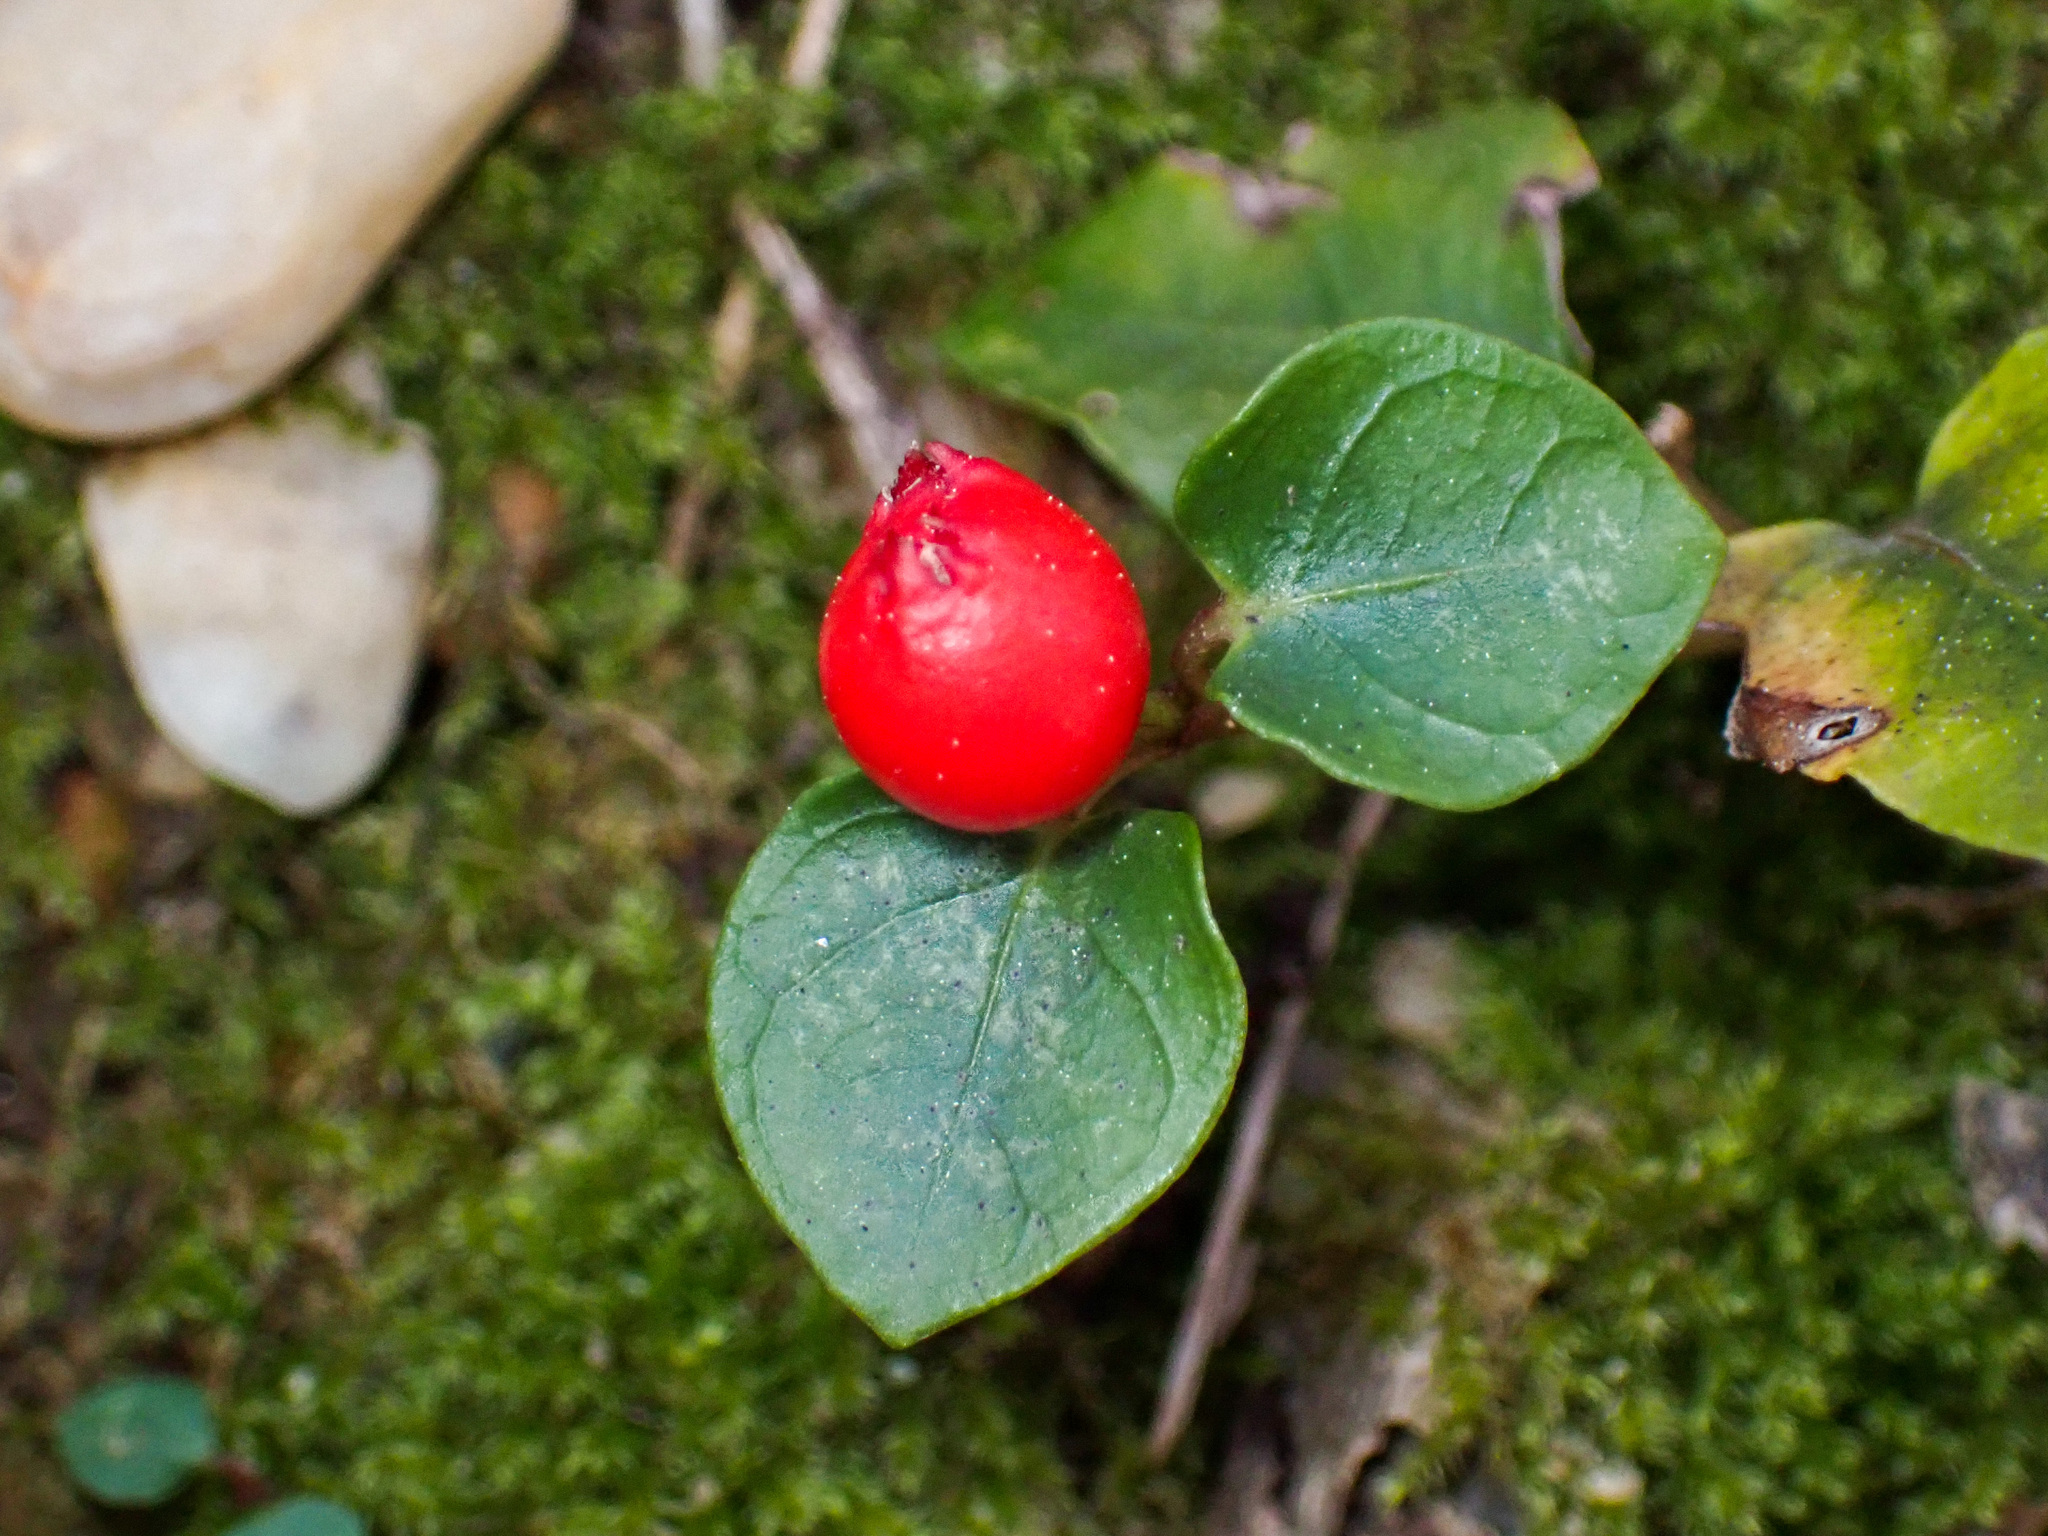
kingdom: Plantae
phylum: Tracheophyta
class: Magnoliopsida
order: Gentianales
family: Rubiaceae
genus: Mitchella
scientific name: Mitchella repens
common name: Partridge-berry
